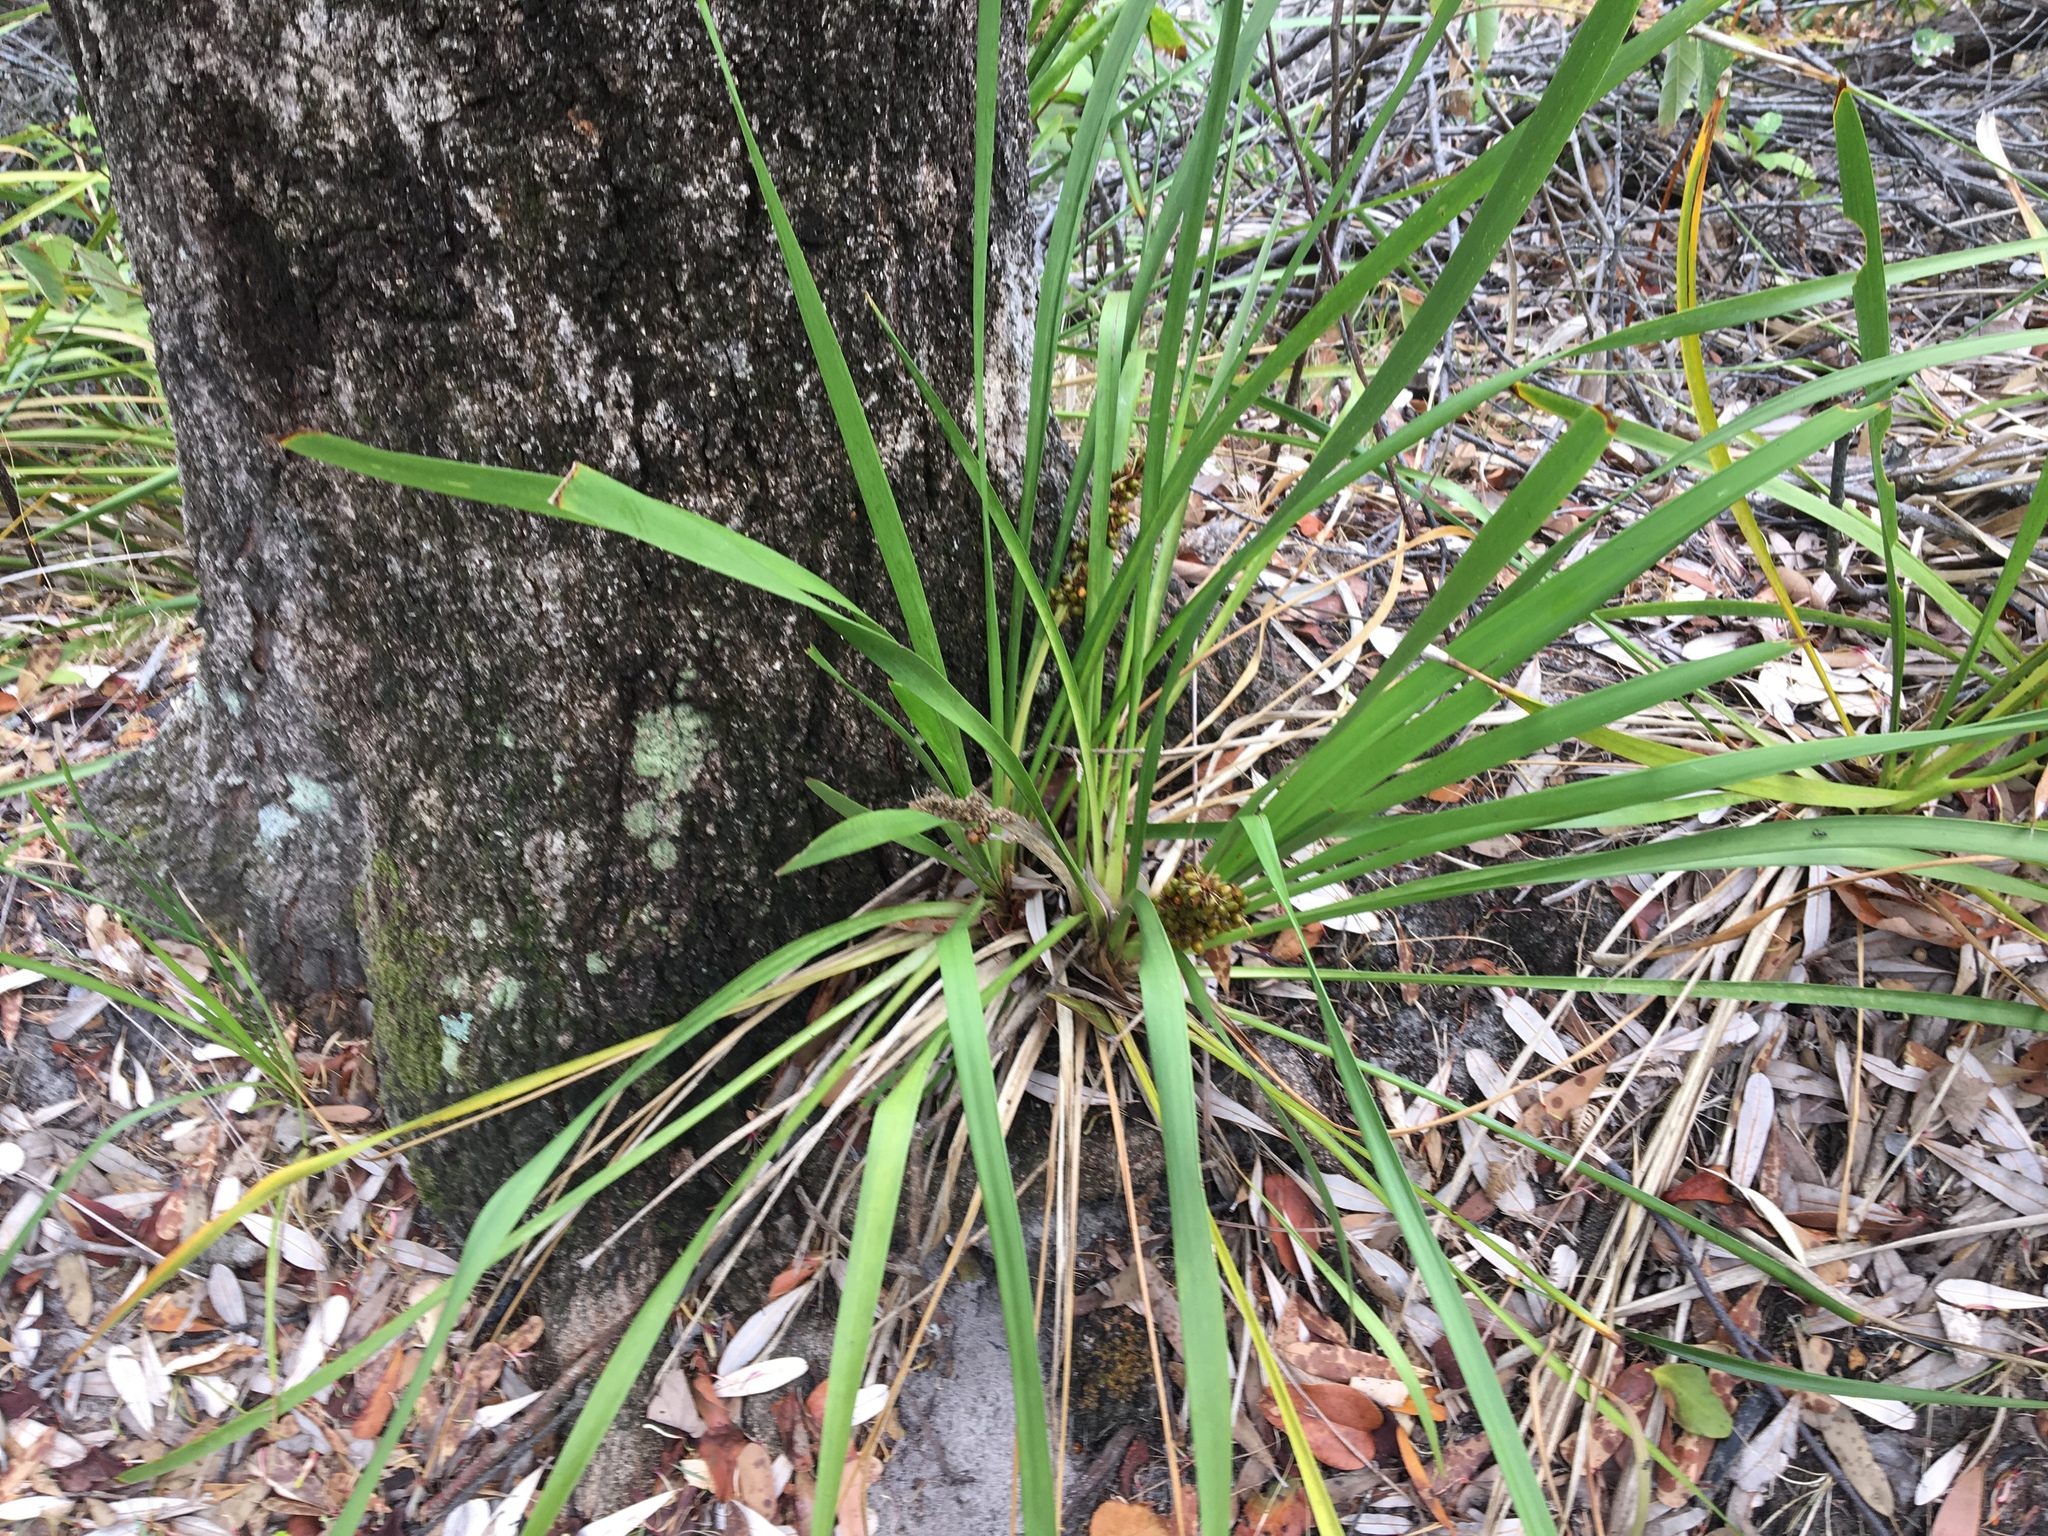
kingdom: Plantae
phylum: Tracheophyta
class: Liliopsida
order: Asparagales
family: Asparagaceae
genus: Lomandra
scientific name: Lomandra longifolia
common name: Longleaf mat-rush
